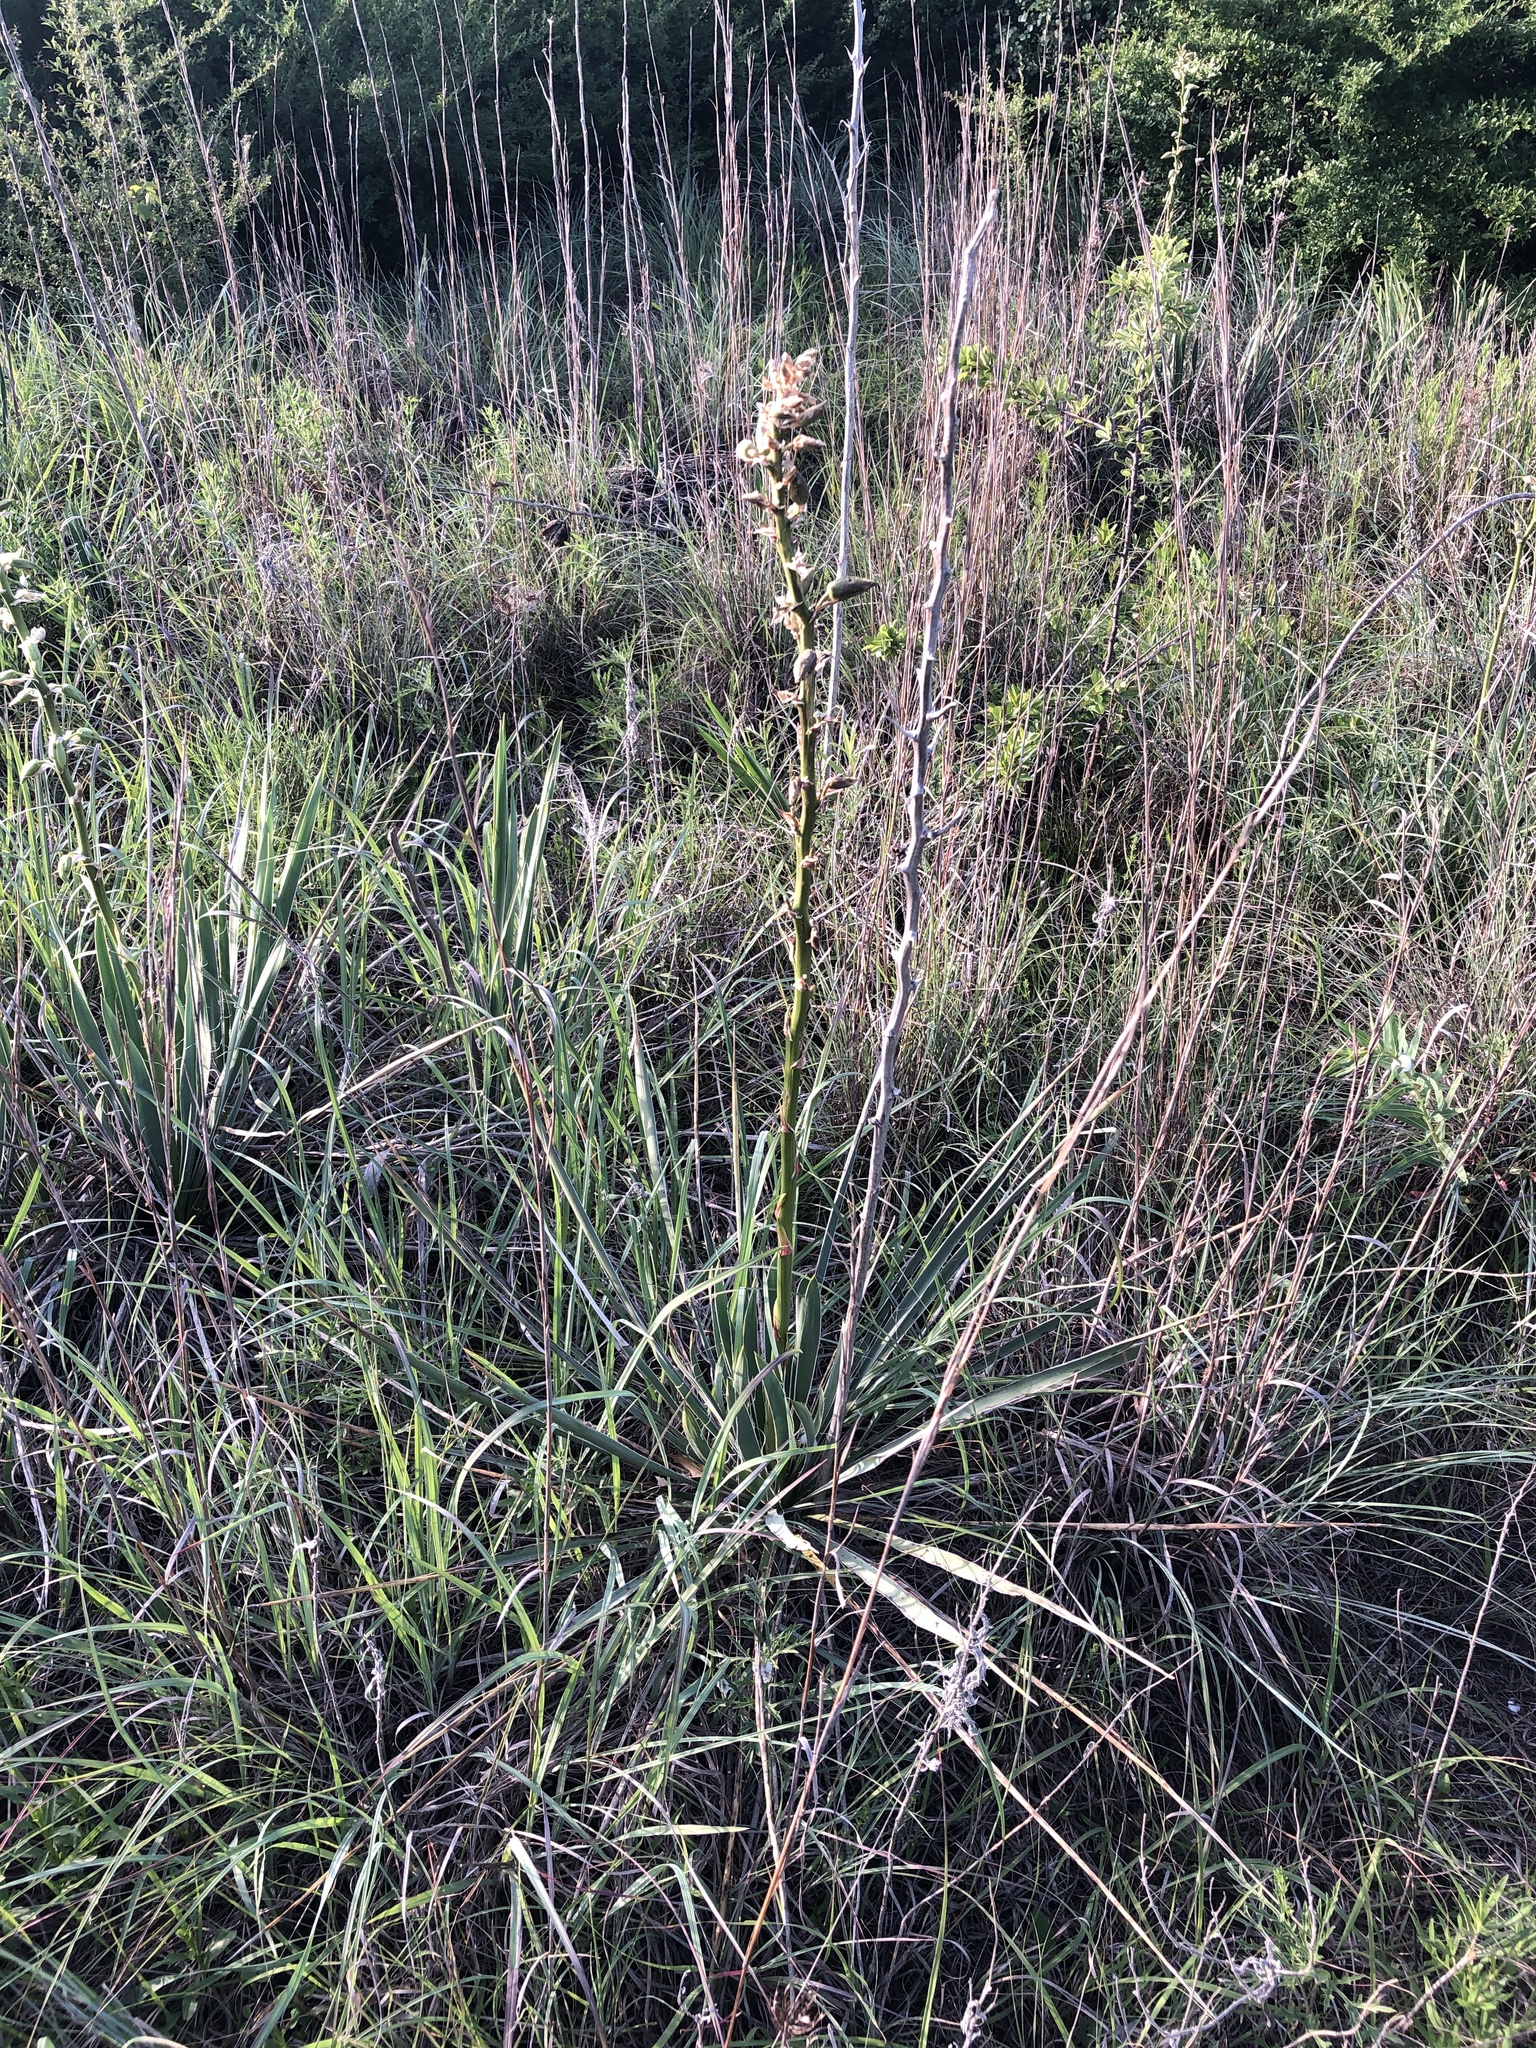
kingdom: Plantae
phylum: Tracheophyta
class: Liliopsida
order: Asparagales
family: Asparagaceae
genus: Yucca
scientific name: Yucca arkansana
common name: Arkansas yucca
